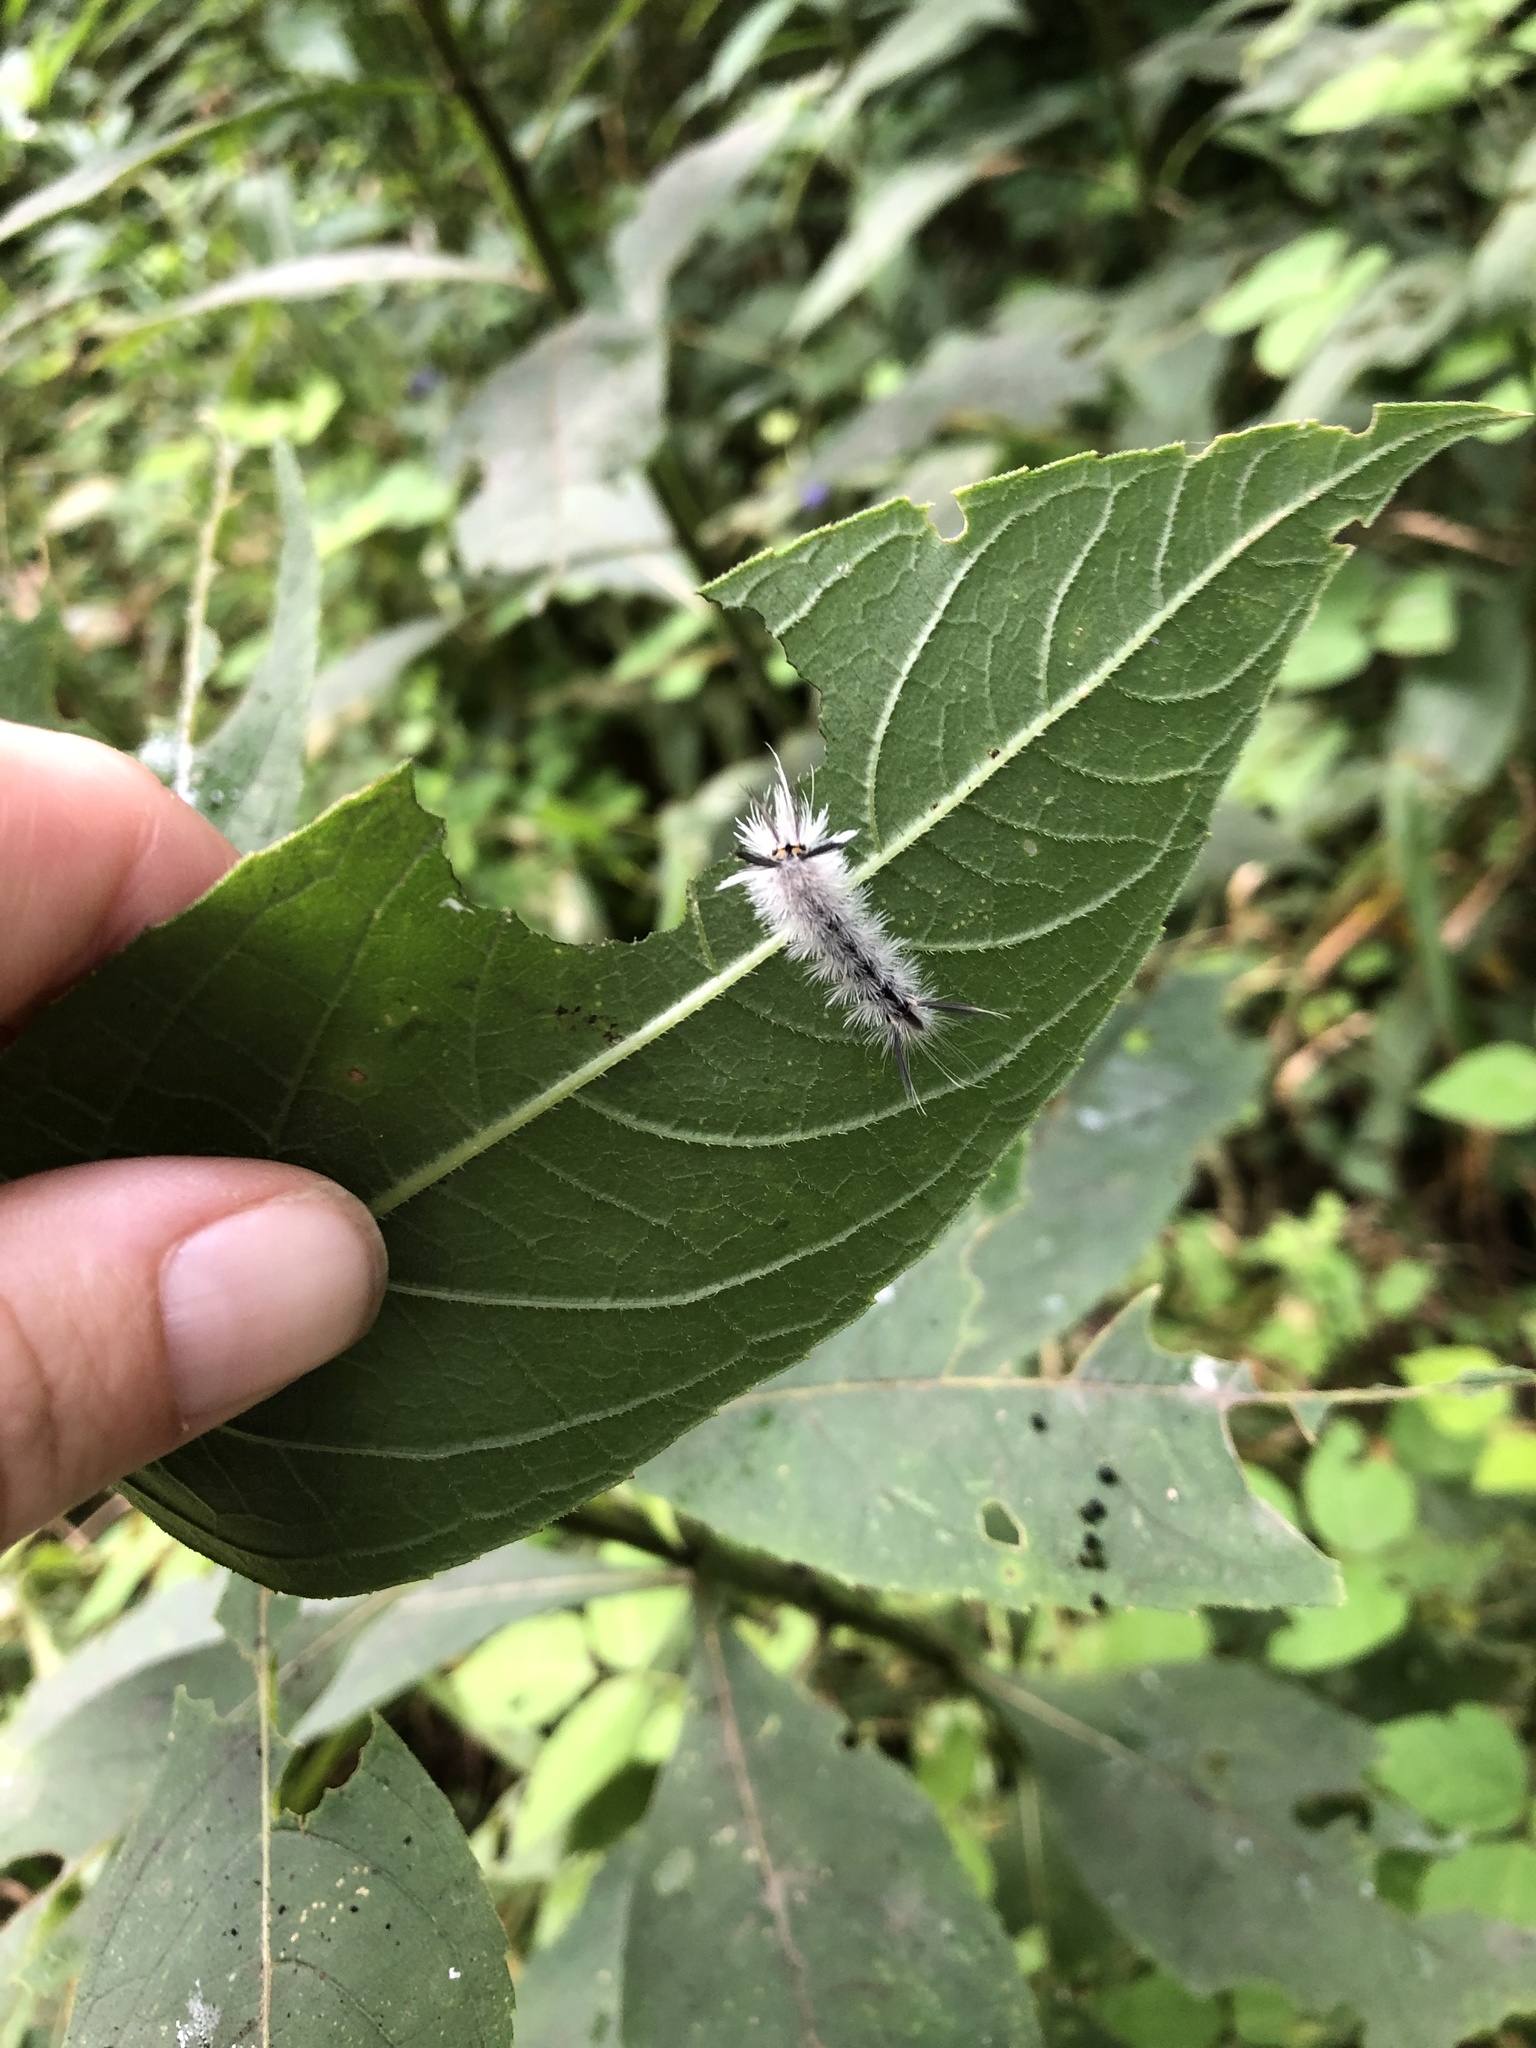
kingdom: Animalia
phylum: Arthropoda
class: Insecta
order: Lepidoptera
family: Erebidae
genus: Halysidota
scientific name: Halysidota tessellaris
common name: Banded tussock moth
